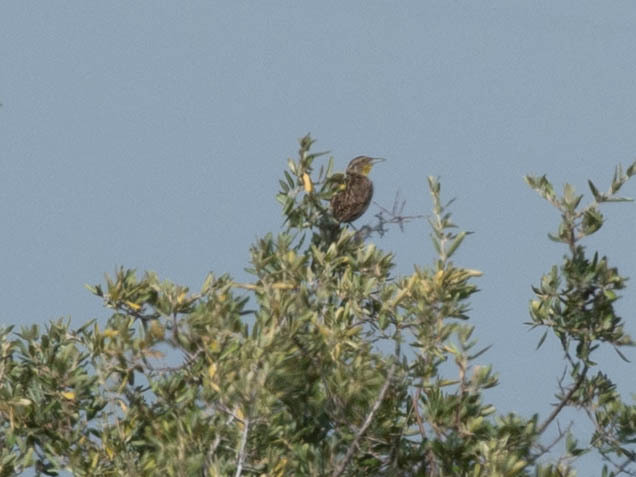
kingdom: Animalia
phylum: Chordata
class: Aves
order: Passeriformes
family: Icteridae
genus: Sturnella
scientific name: Sturnella neglecta
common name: Western meadowlark
